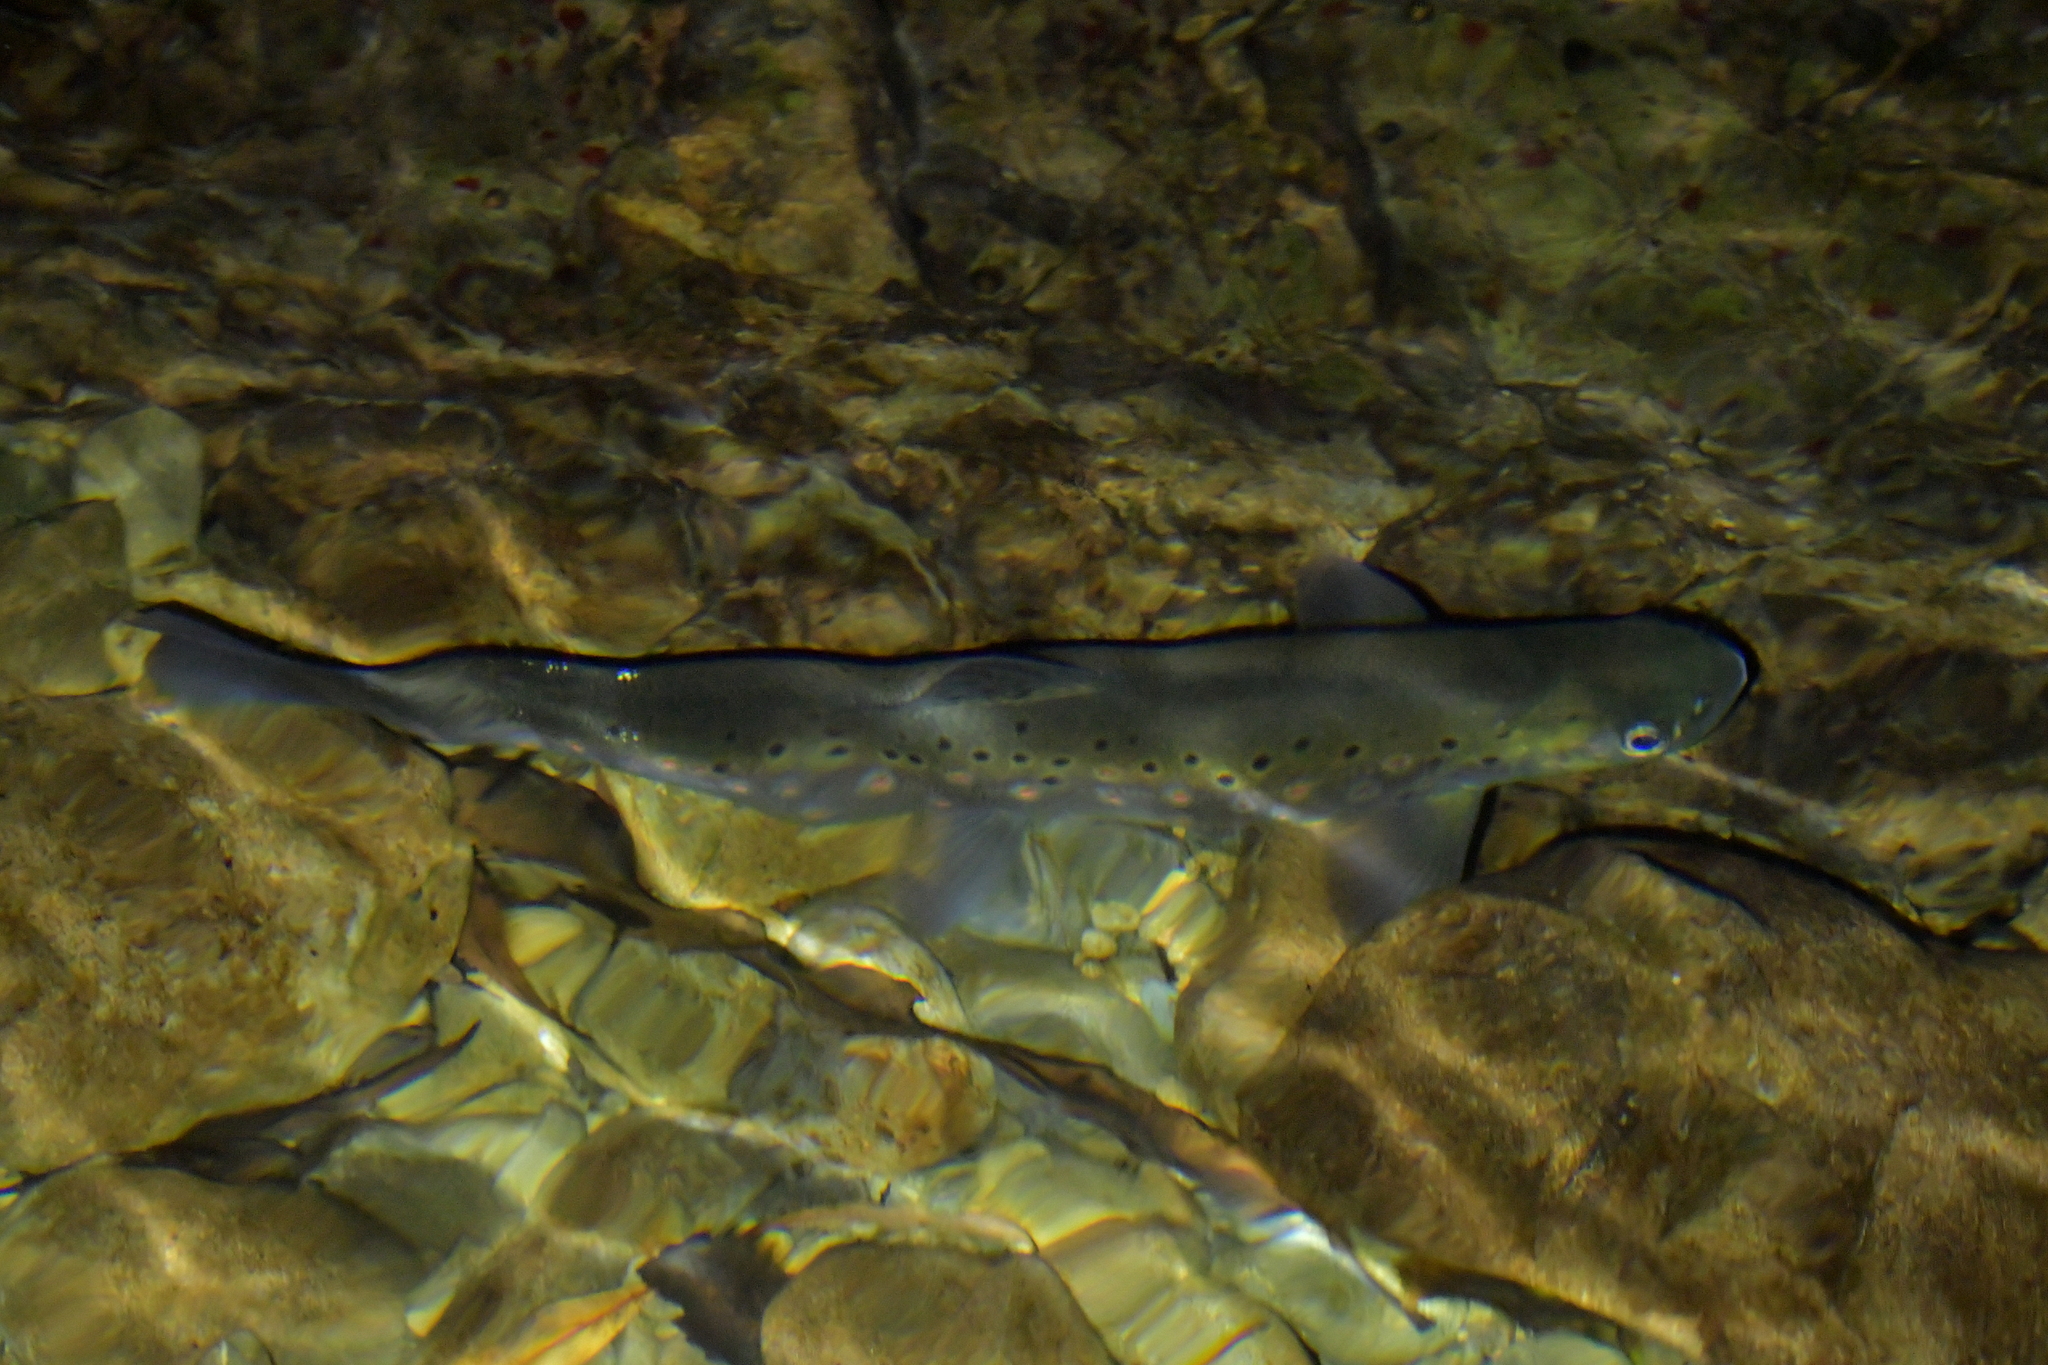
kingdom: Animalia
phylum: Chordata
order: Salmoniformes
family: Salmonidae
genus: Salmo
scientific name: Salmo trutta
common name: Brown trout
